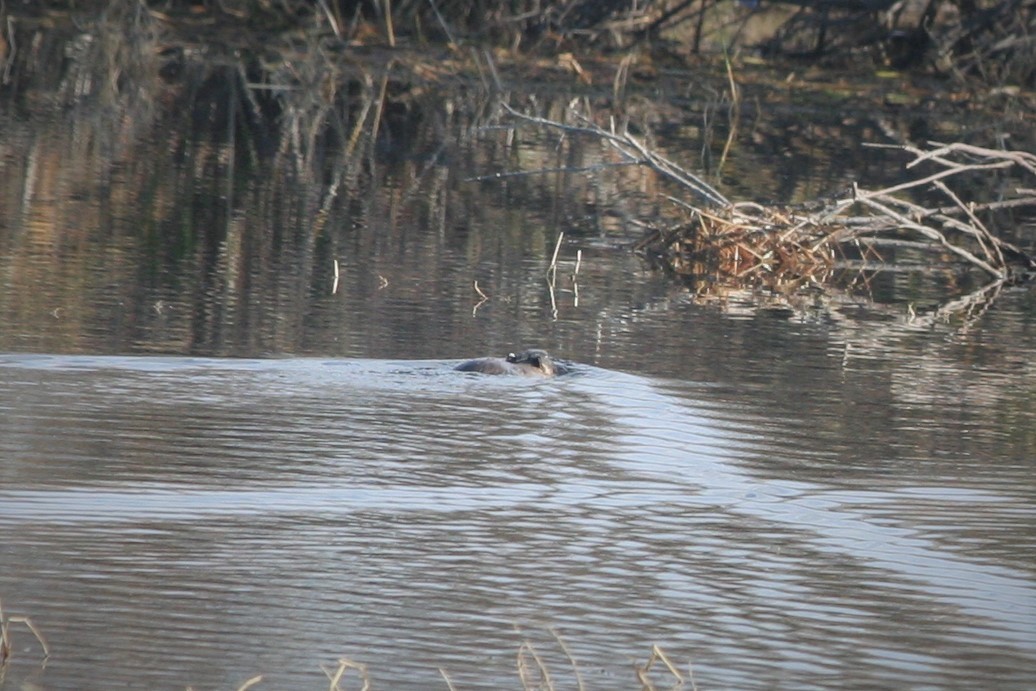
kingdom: Animalia
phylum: Chordata
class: Mammalia
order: Rodentia
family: Myocastoridae
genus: Myocastor
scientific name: Myocastor coypus
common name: Coypu
